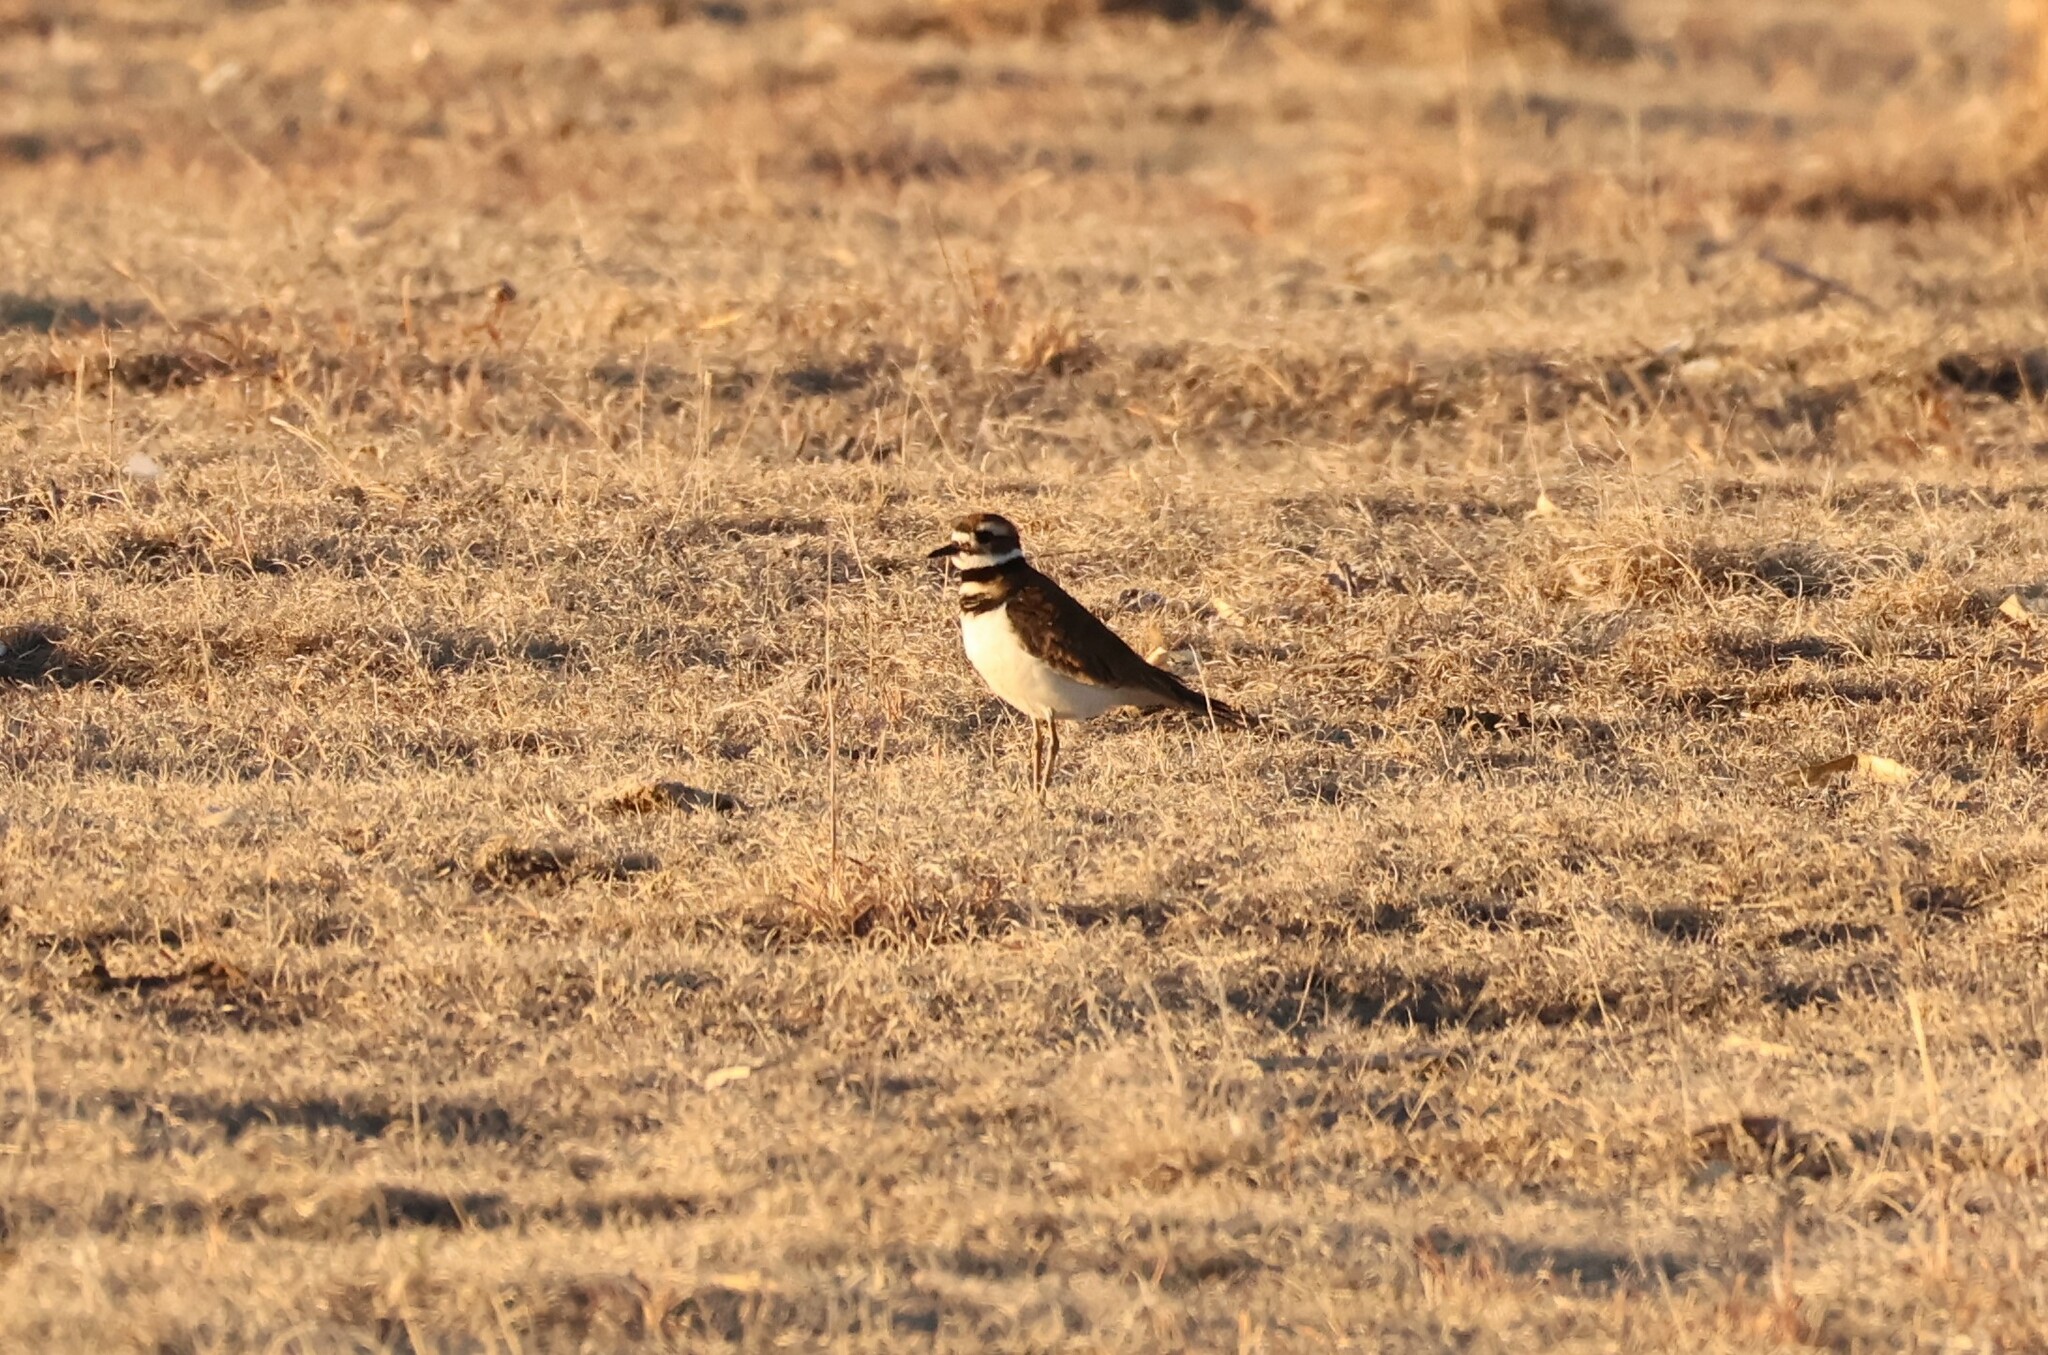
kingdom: Animalia
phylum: Chordata
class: Aves
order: Charadriiformes
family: Charadriidae
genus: Charadrius
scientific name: Charadrius vociferus
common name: Killdeer
